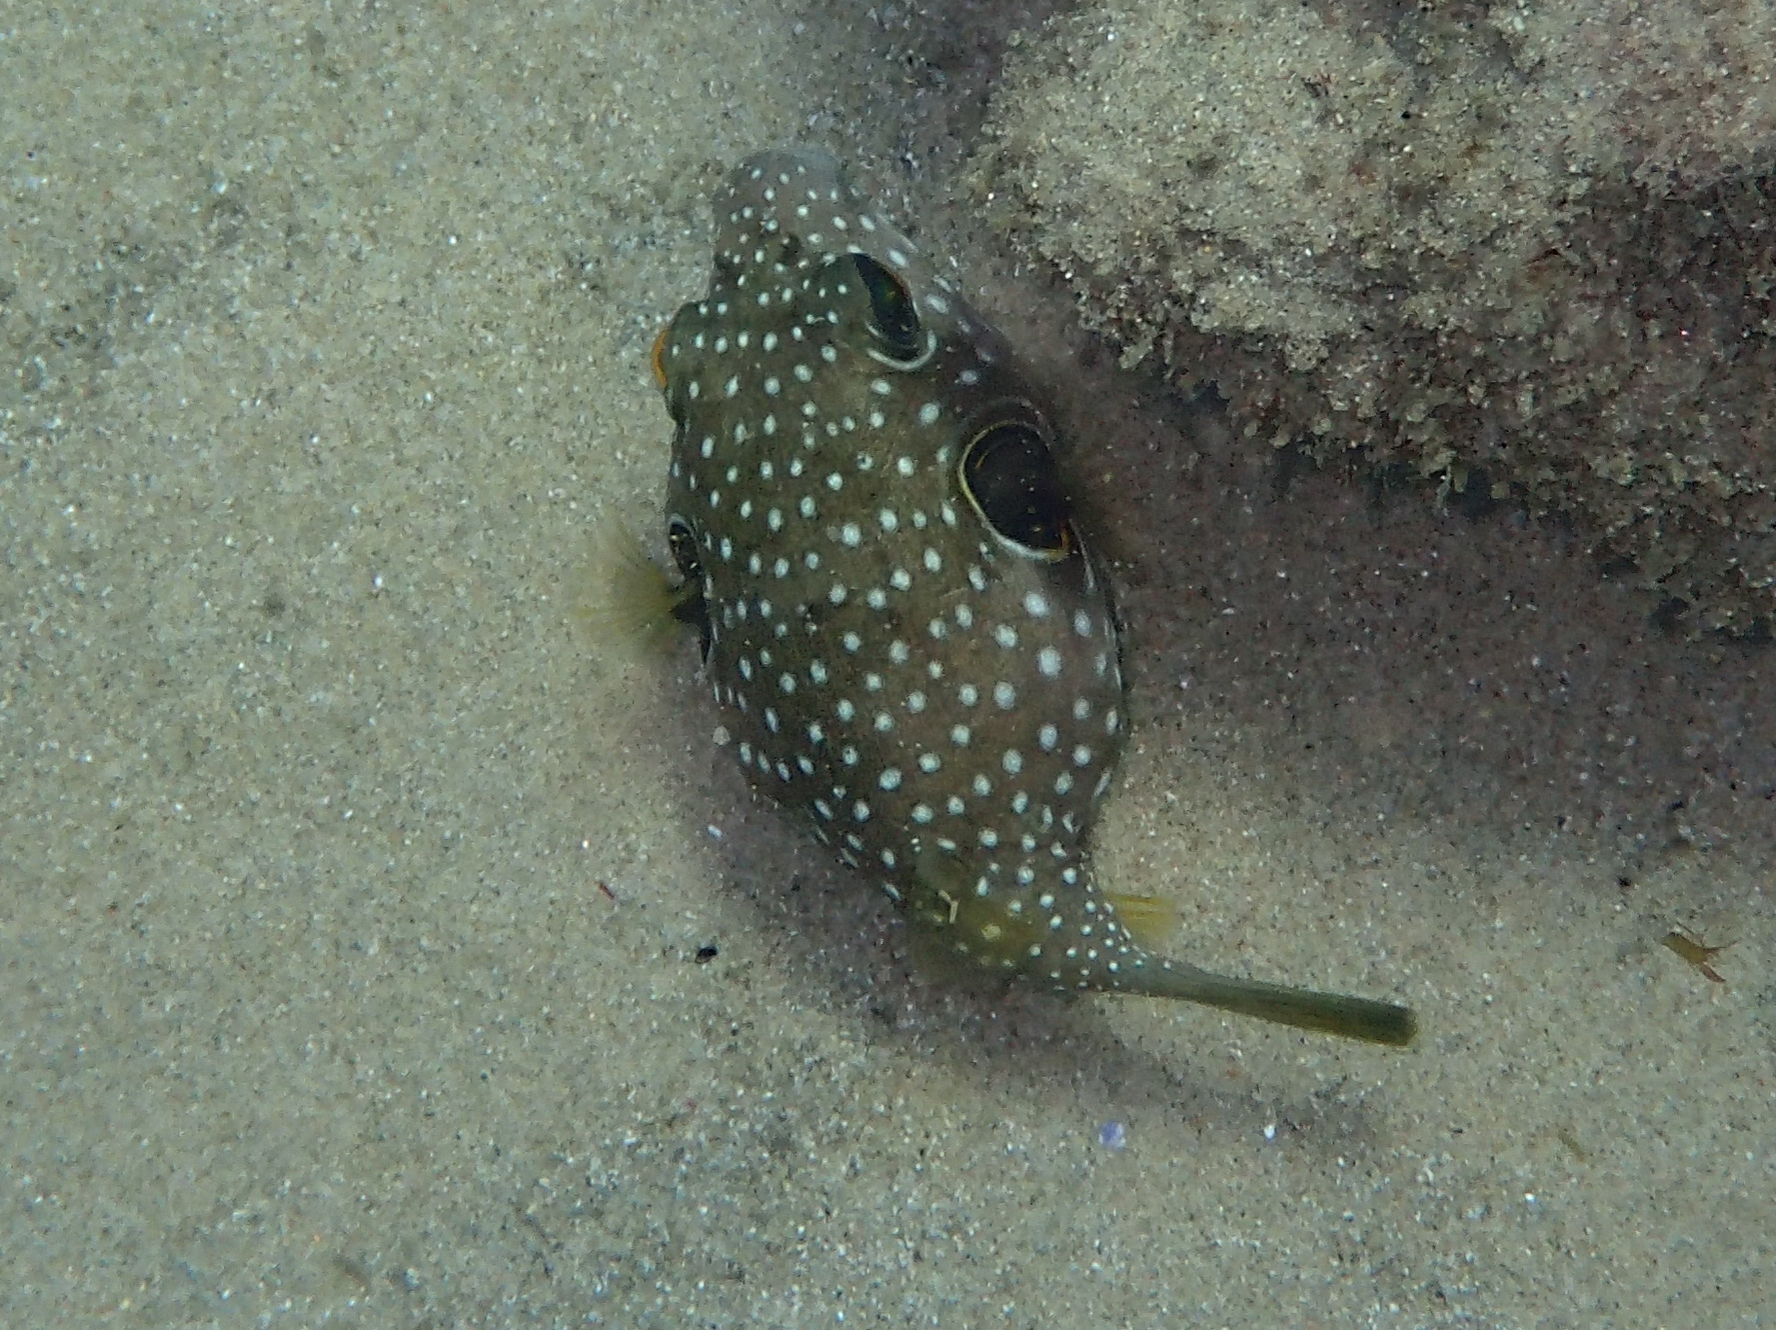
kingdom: Animalia
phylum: Chordata
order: Tetraodontiformes
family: Tetraodontidae
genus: Arothron
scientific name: Arothron hispidus
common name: Stripebelly puffer
